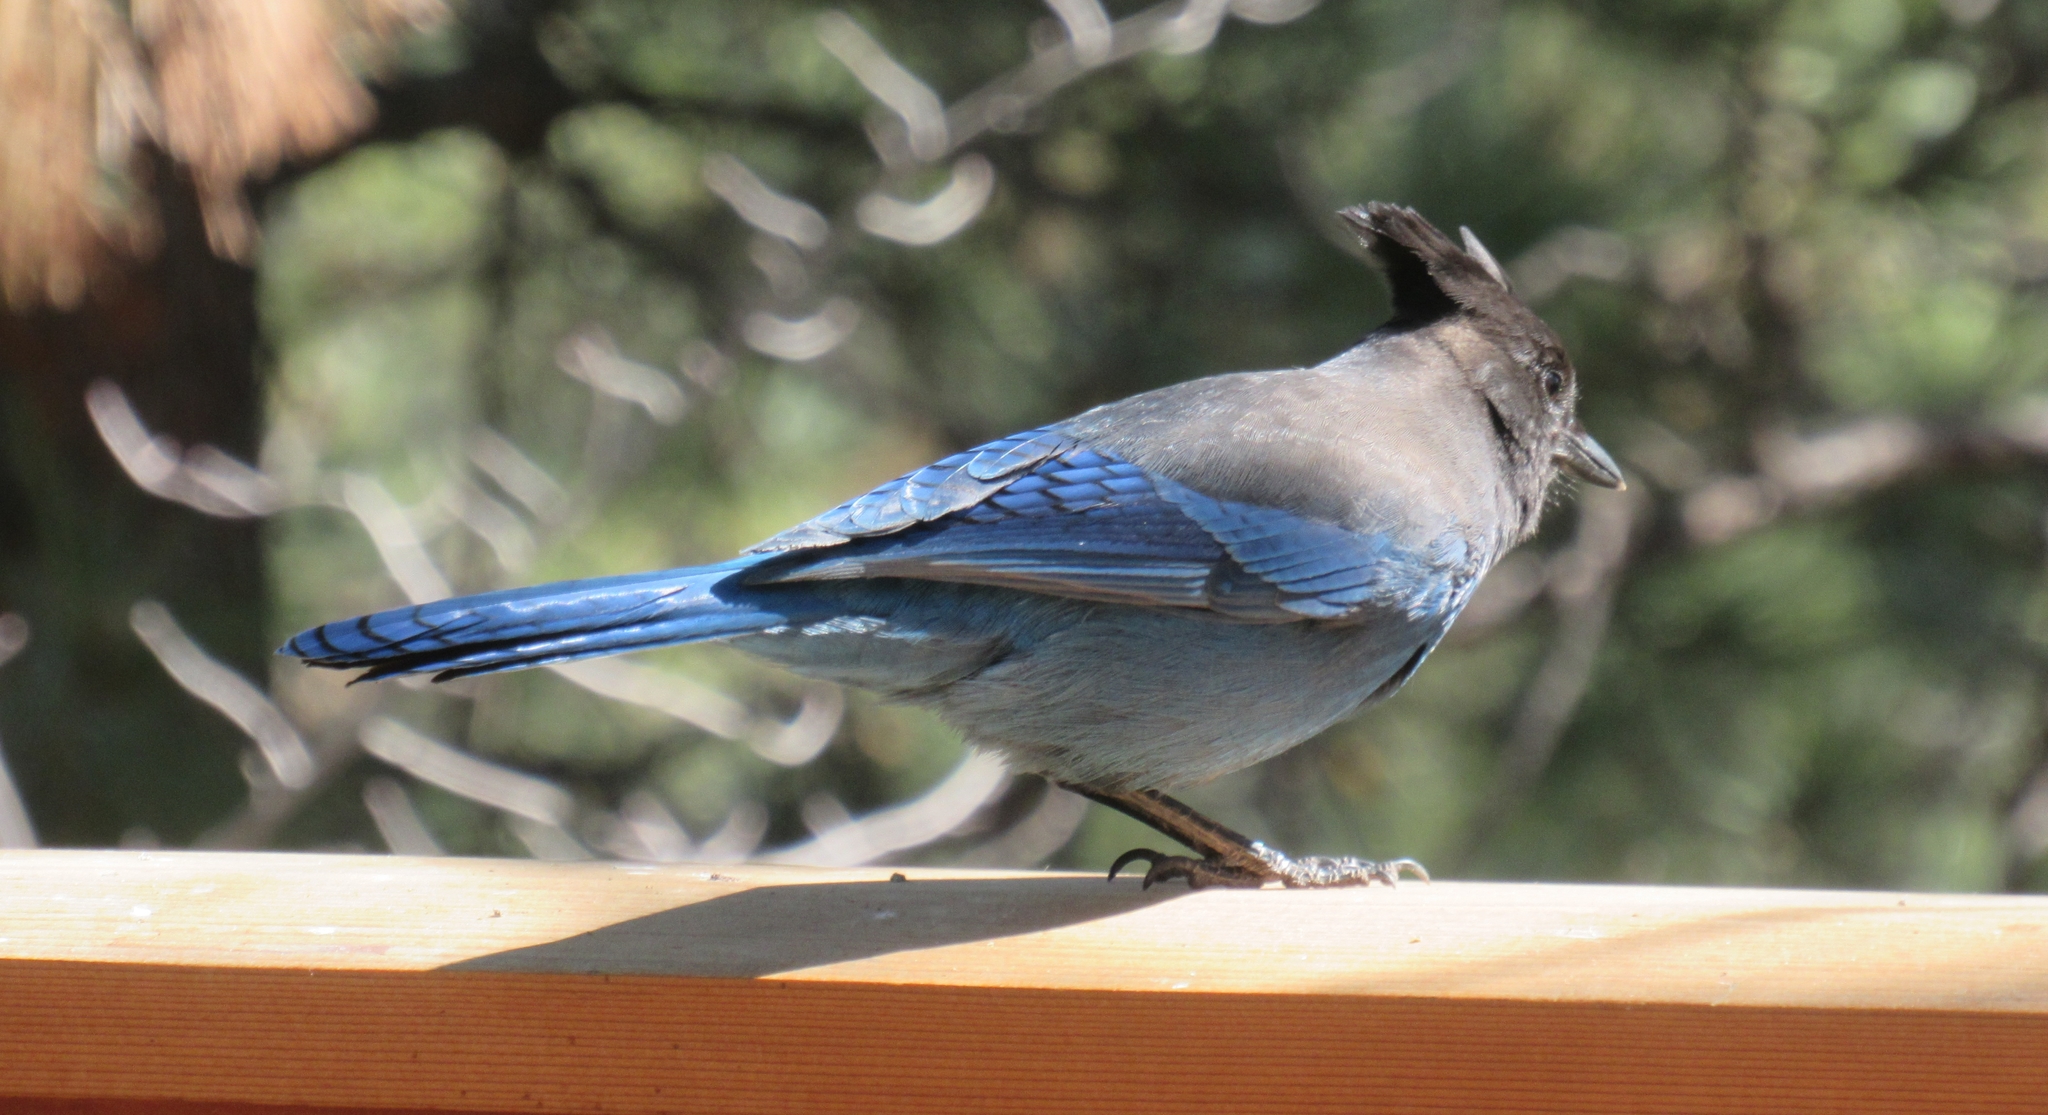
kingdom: Animalia
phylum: Chordata
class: Aves
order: Passeriformes
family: Corvidae
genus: Cyanocitta
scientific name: Cyanocitta stelleri
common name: Steller's jay
